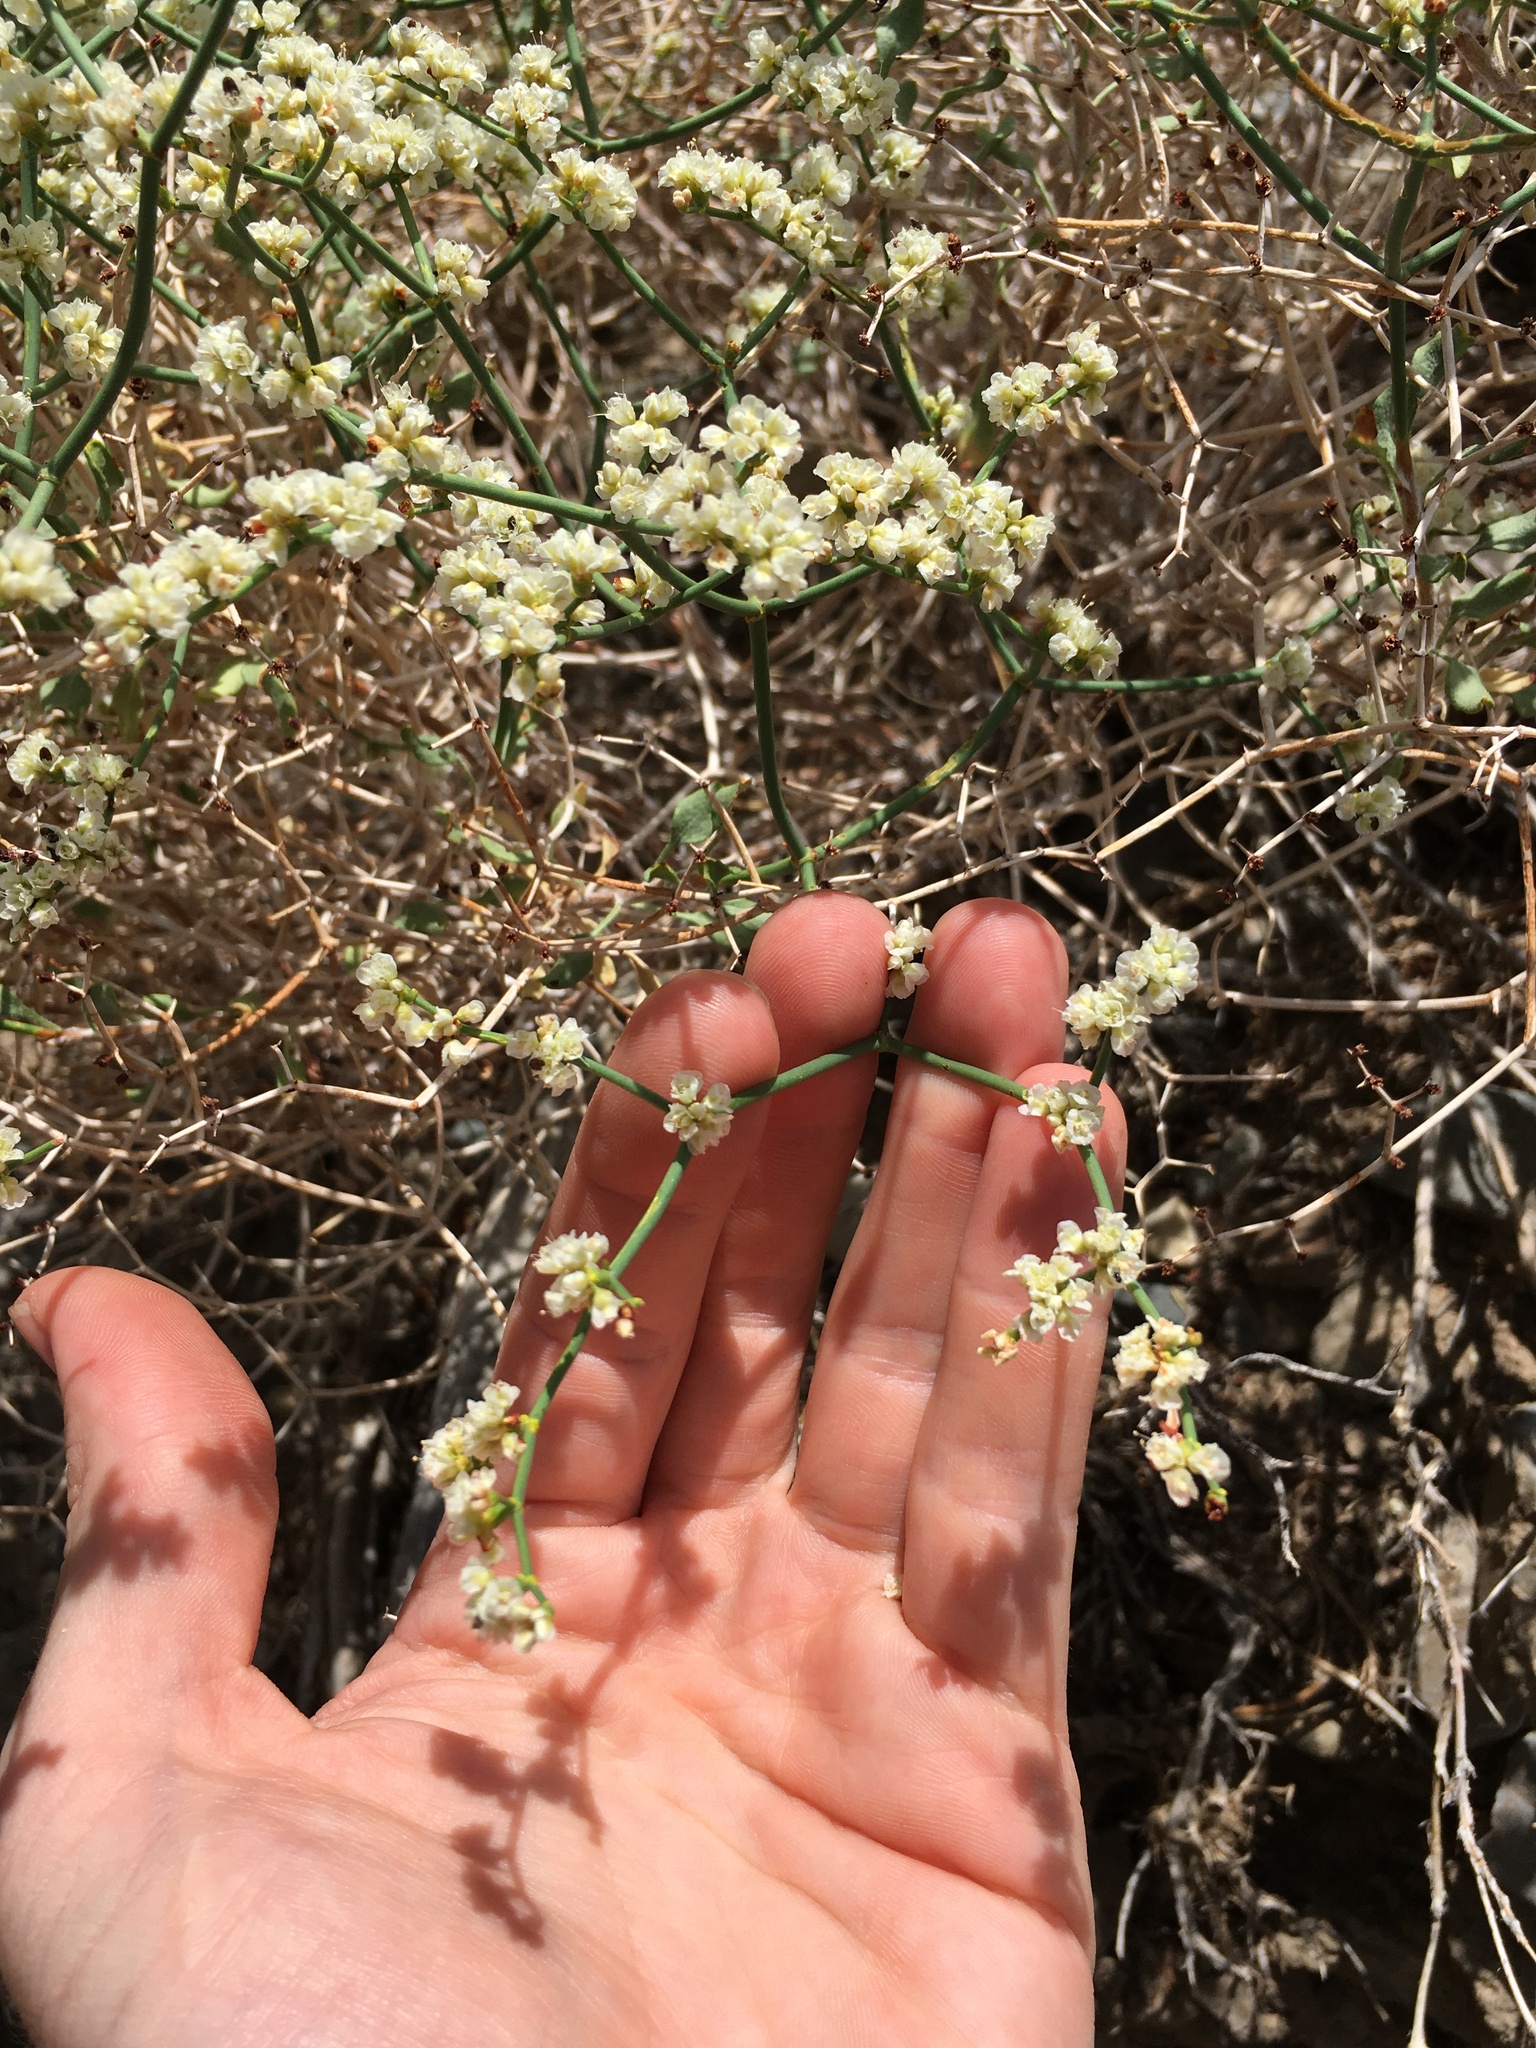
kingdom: Plantae
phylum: Tracheophyta
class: Magnoliopsida
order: Caryophyllales
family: Polygonaceae
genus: Eriogonum
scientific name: Eriogonum heermannii
